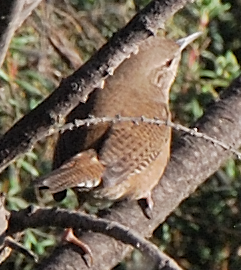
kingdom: Animalia
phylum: Chordata
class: Aves
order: Passeriformes
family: Troglodytidae
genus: Troglodytes
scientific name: Troglodytes aedon
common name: House wren
